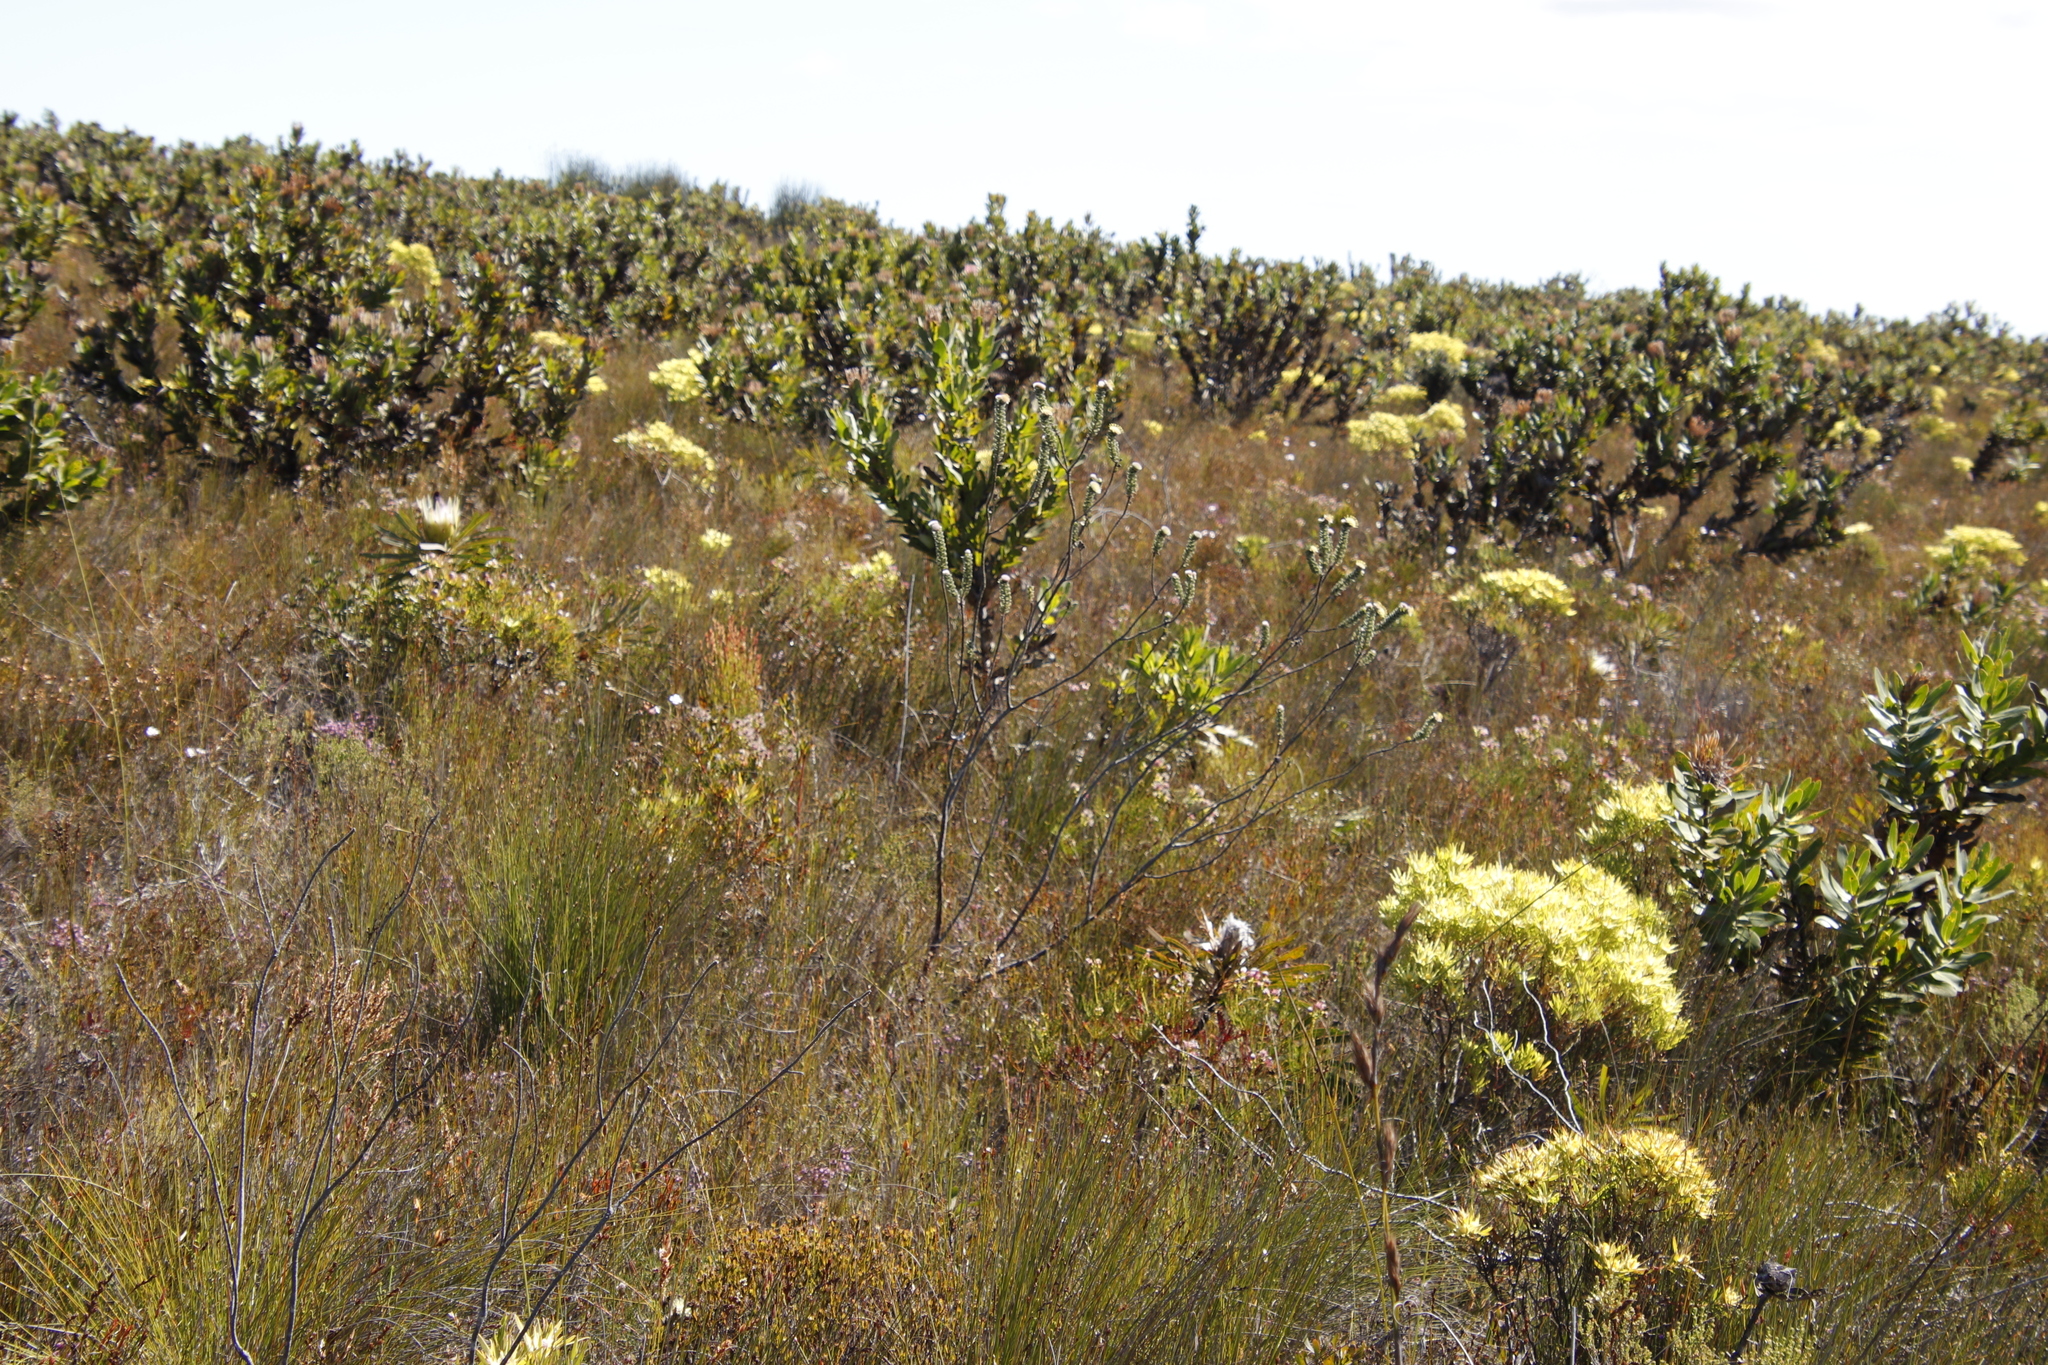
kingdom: Plantae
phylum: Tracheophyta
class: Magnoliopsida
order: Proteales
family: Proteaceae
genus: Leucospermum
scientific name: Leucospermum truncatulum
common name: Oval-leaf pincushion
